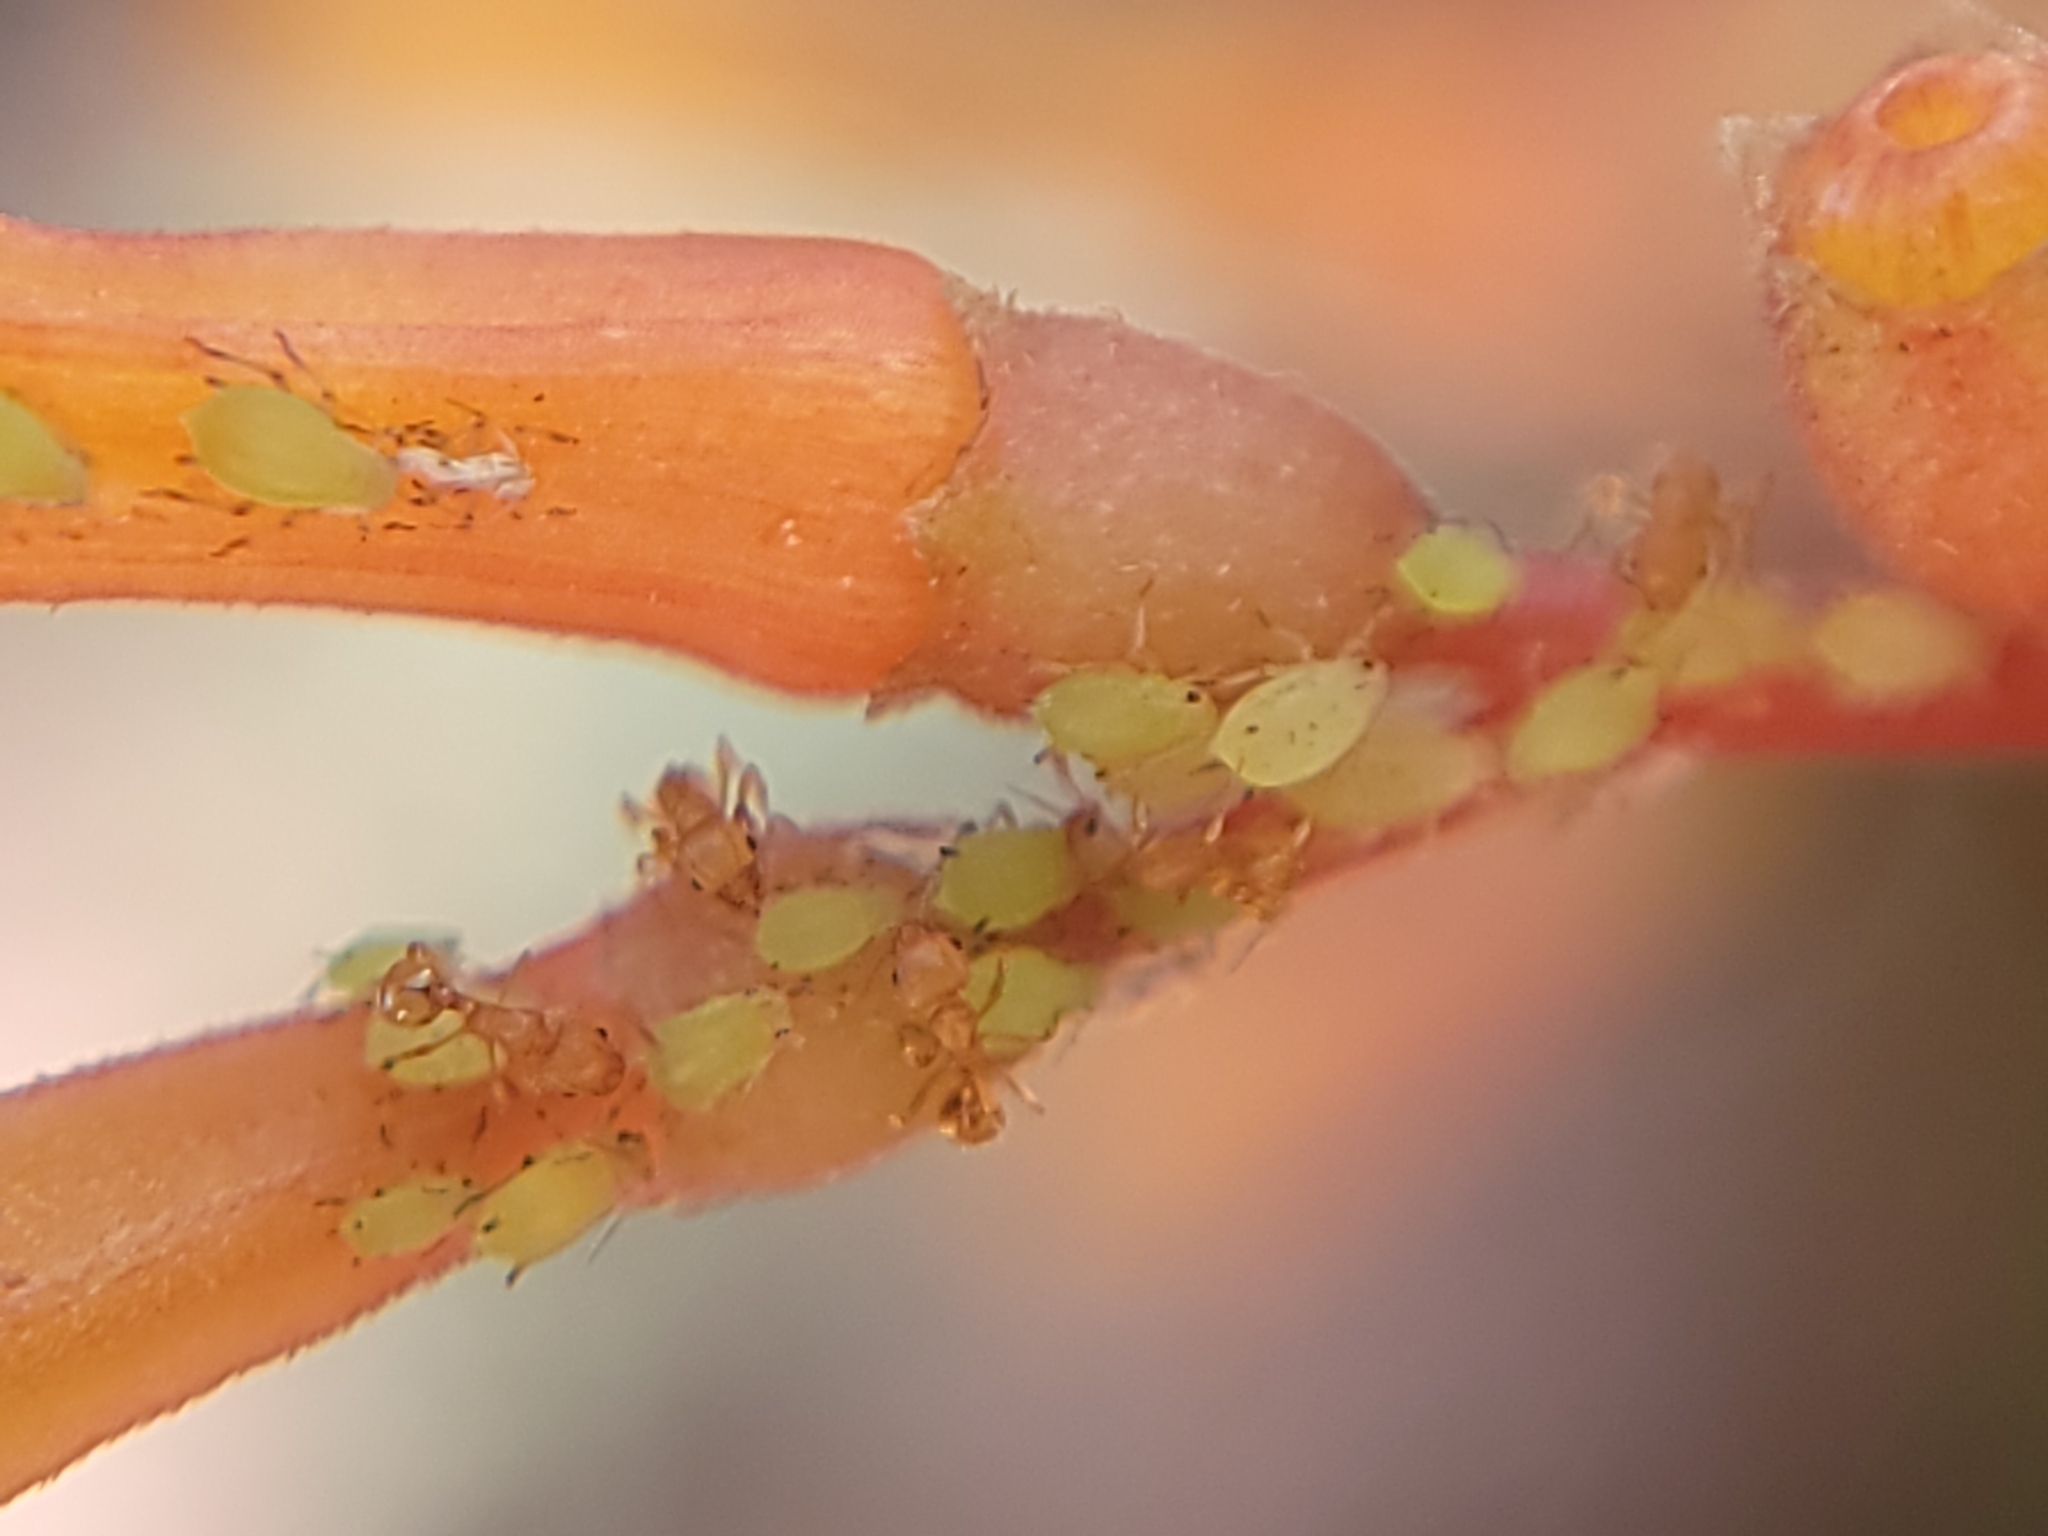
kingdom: Animalia
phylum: Arthropoda
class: Insecta
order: Hymenoptera
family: Formicidae
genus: Wasmannia
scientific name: Wasmannia auropunctata
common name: Little fire ant
